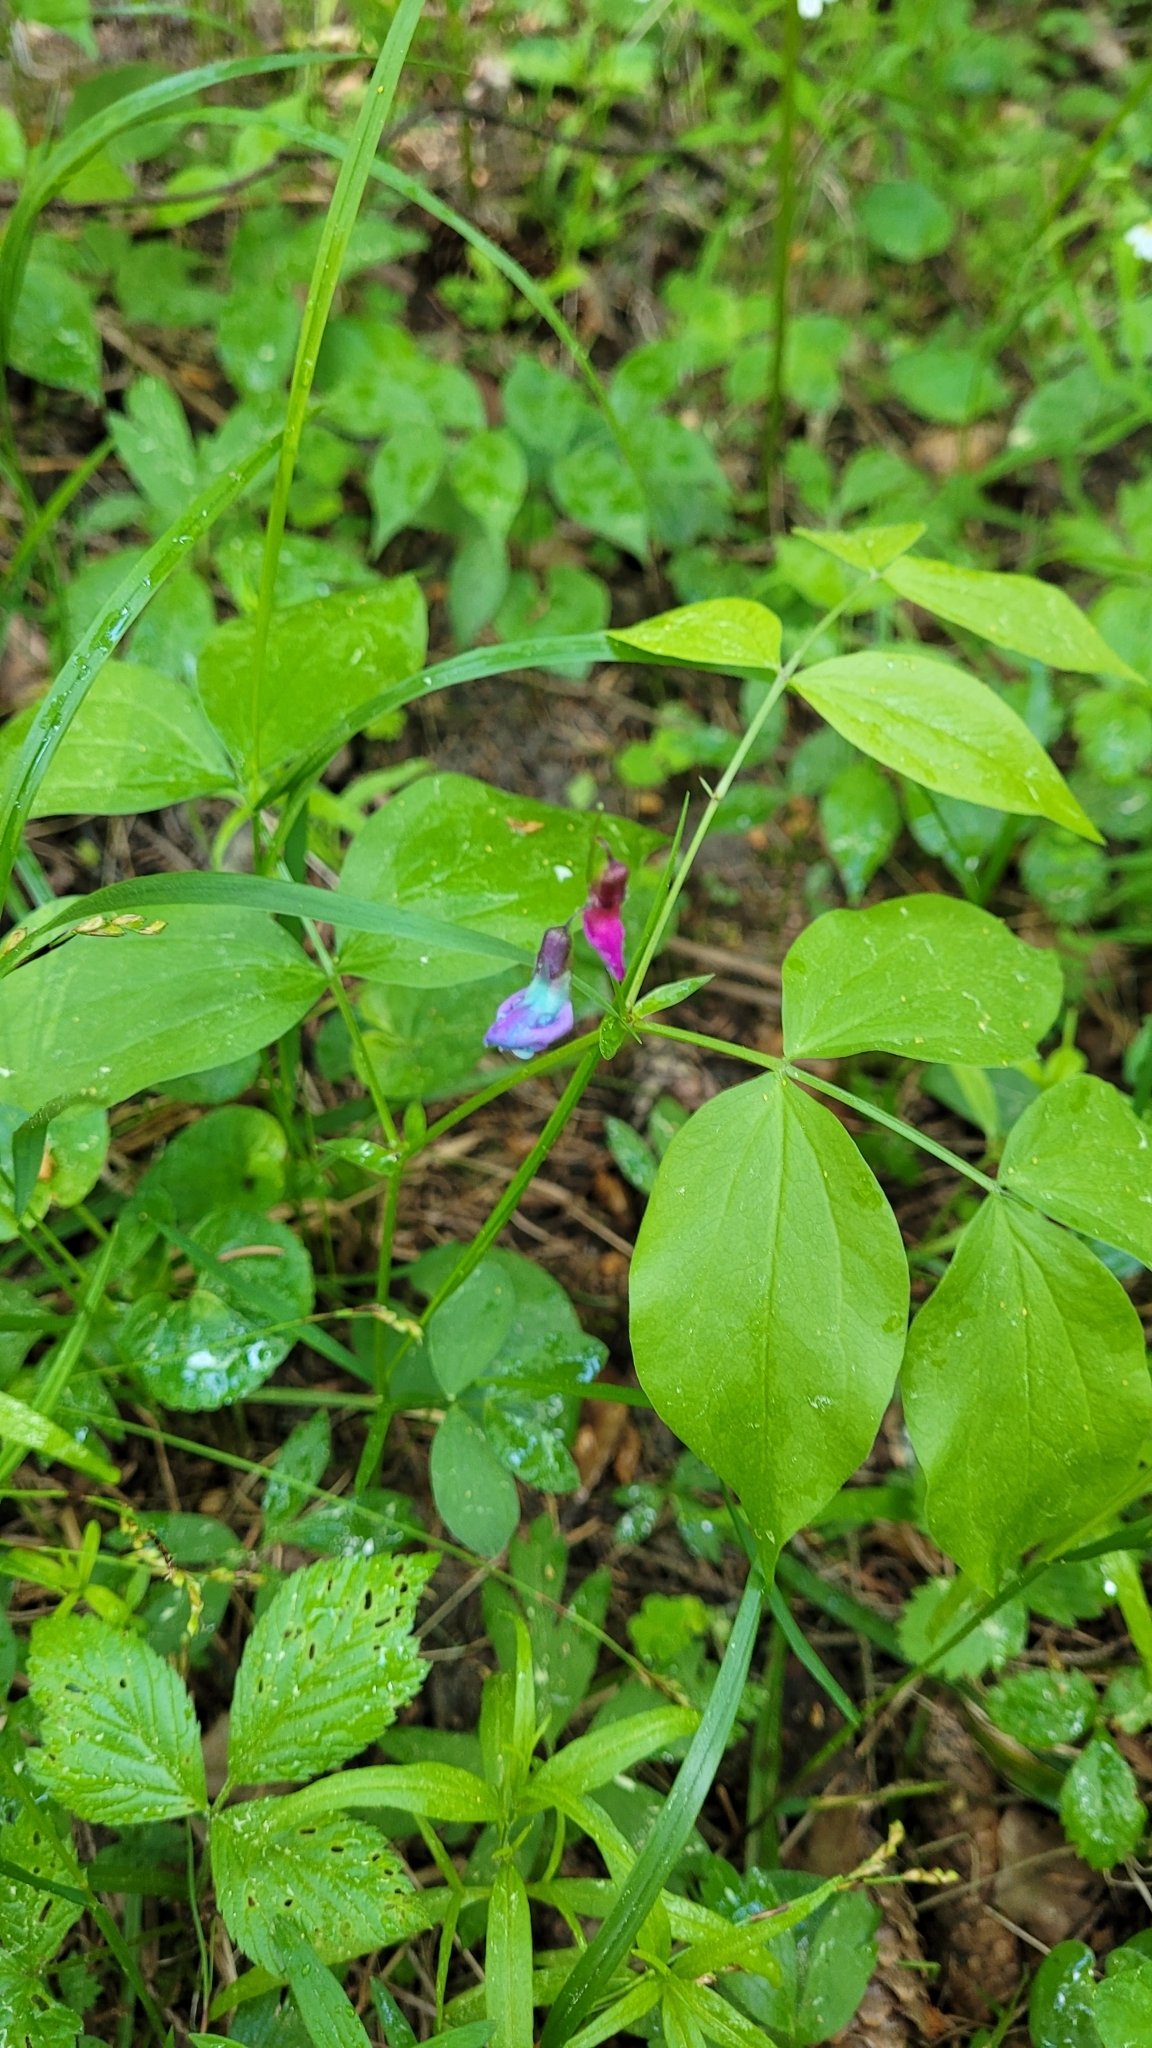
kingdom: Plantae
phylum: Tracheophyta
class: Magnoliopsida
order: Fabales
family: Fabaceae
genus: Lathyrus
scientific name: Lathyrus vernus
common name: Spring pea
